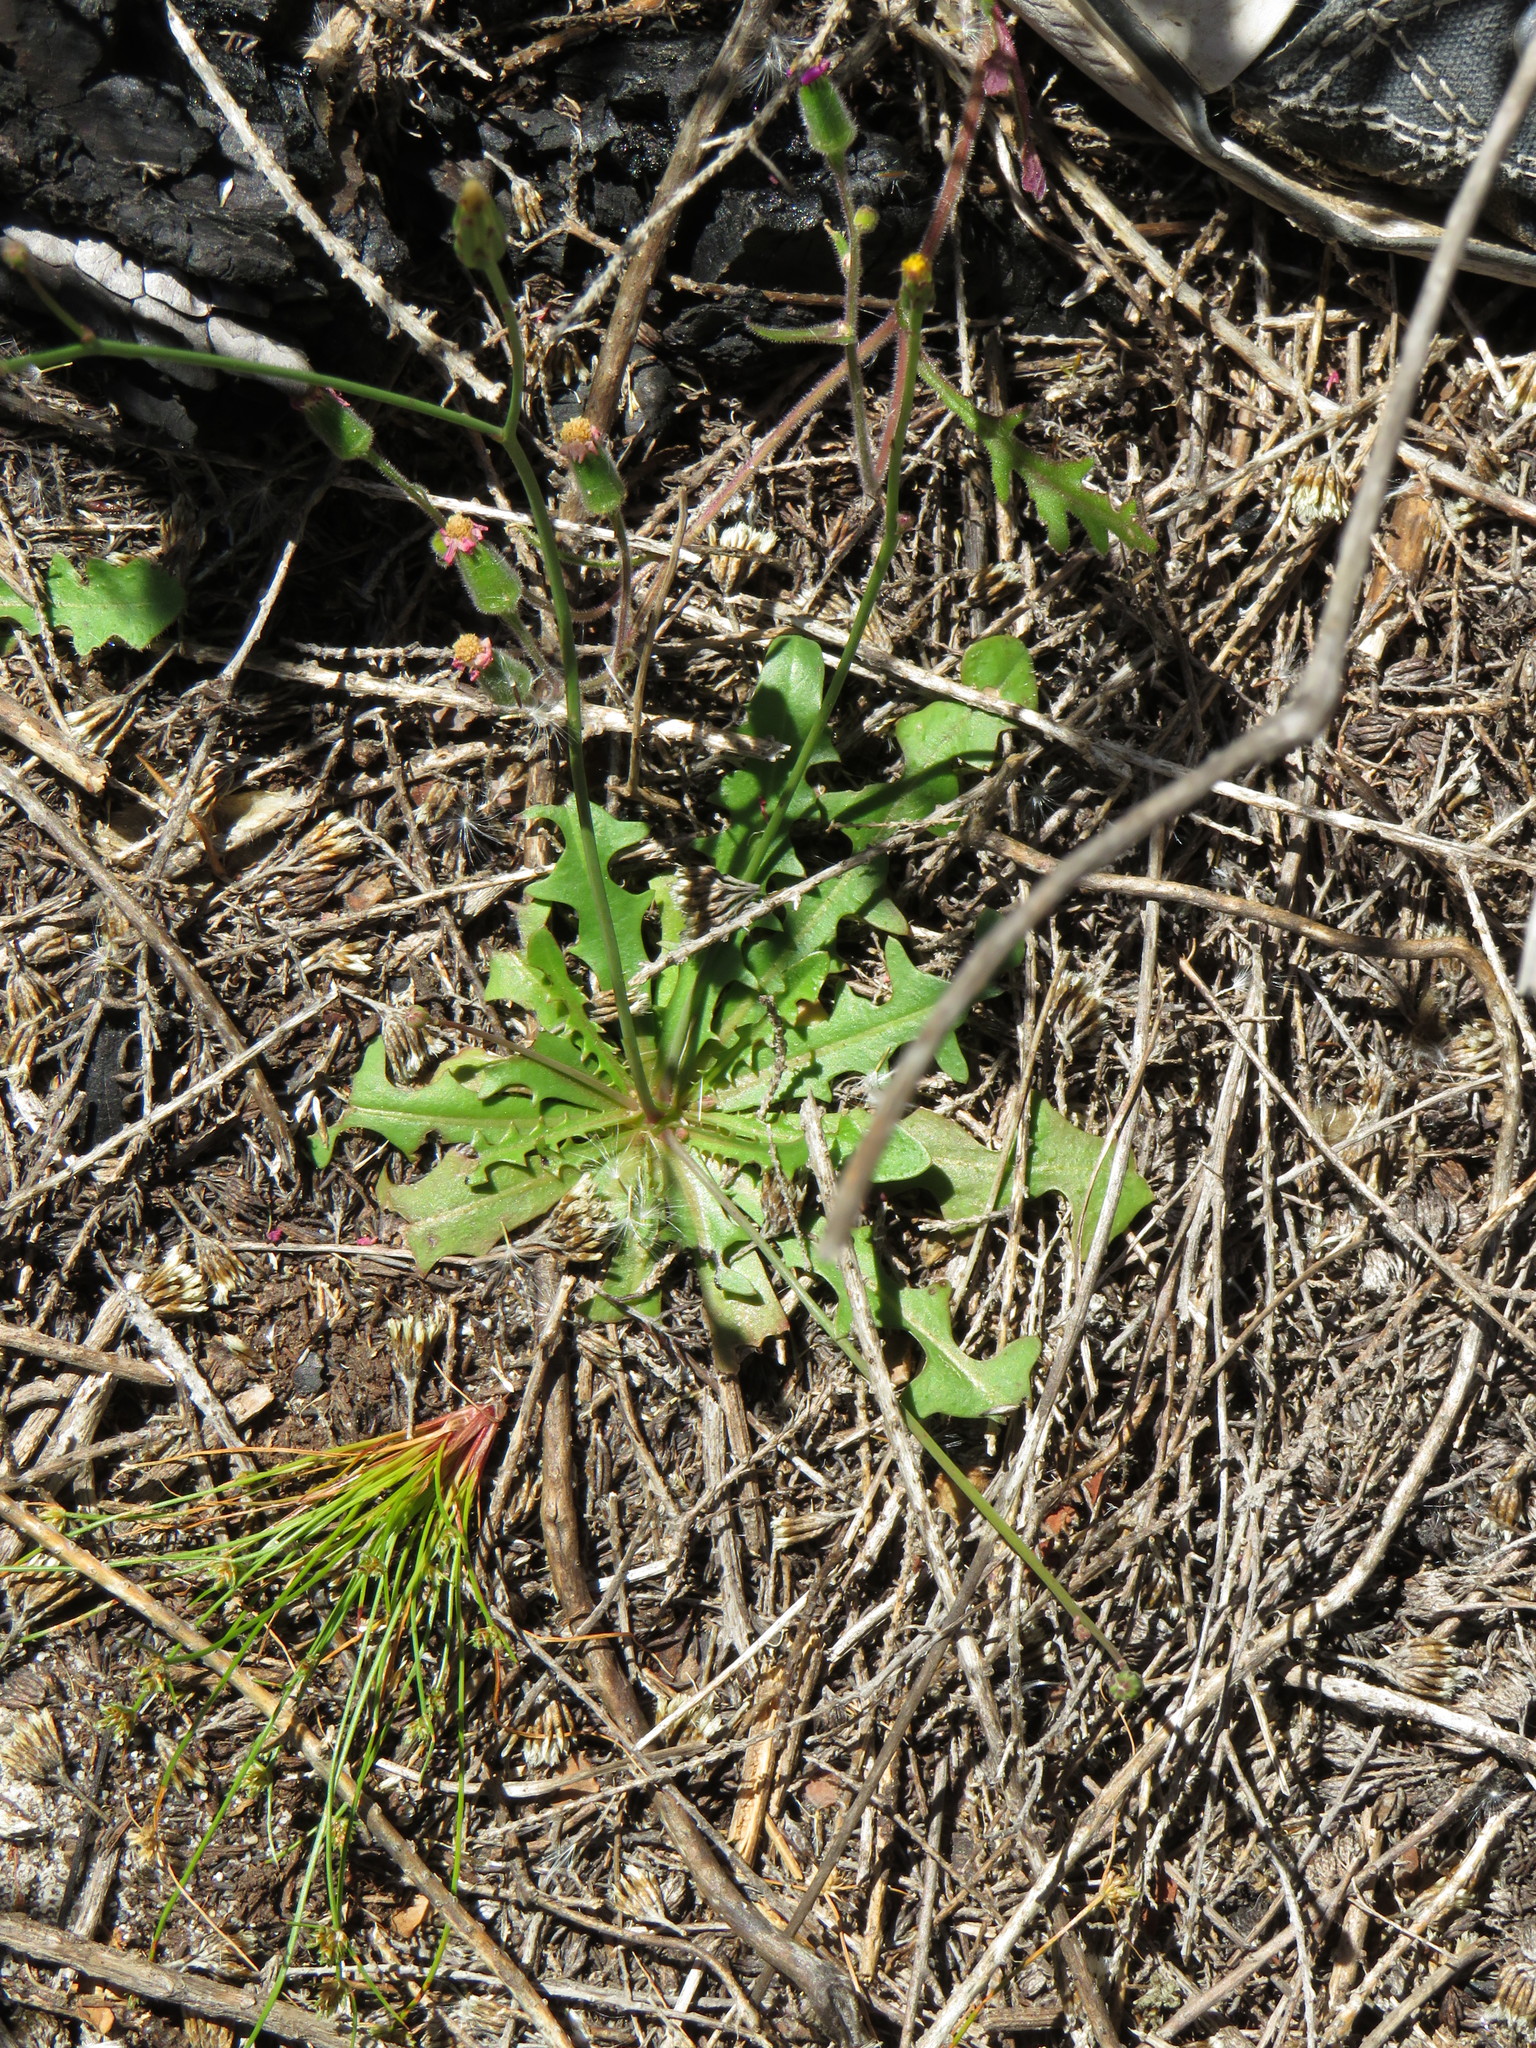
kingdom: Plantae
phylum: Tracheophyta
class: Magnoliopsida
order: Asterales
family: Asteraceae
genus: Hypochaeris
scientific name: Hypochaeris glabra
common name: Smooth catsear
